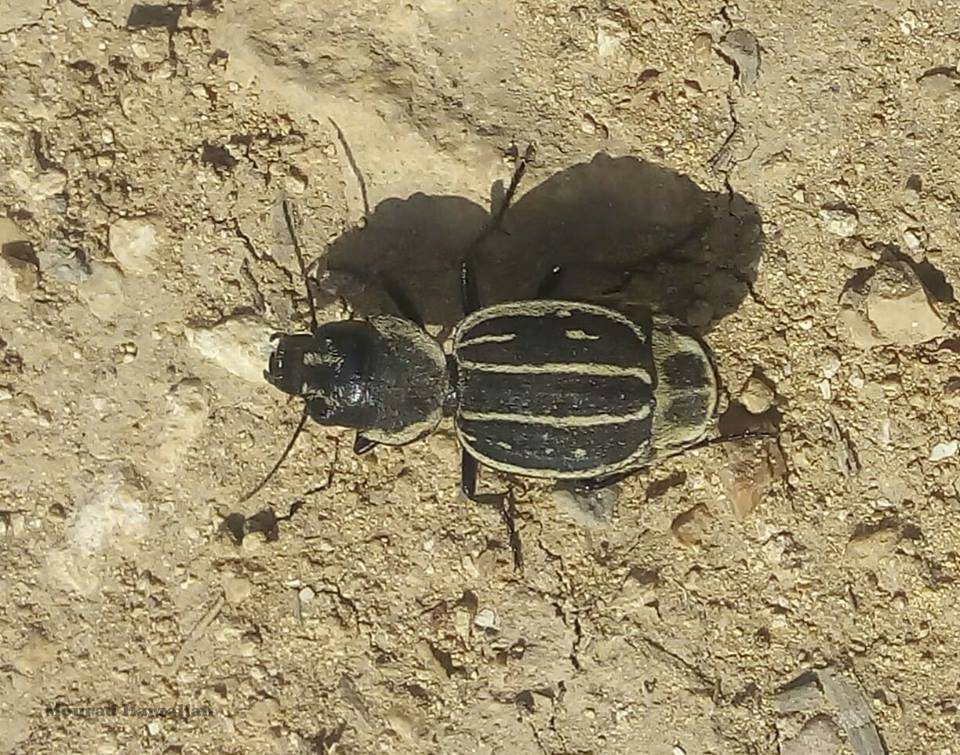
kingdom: Animalia
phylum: Arthropoda
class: Insecta
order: Coleoptera
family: Carabidae
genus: Graphipterus
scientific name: Graphipterus exclamationis
